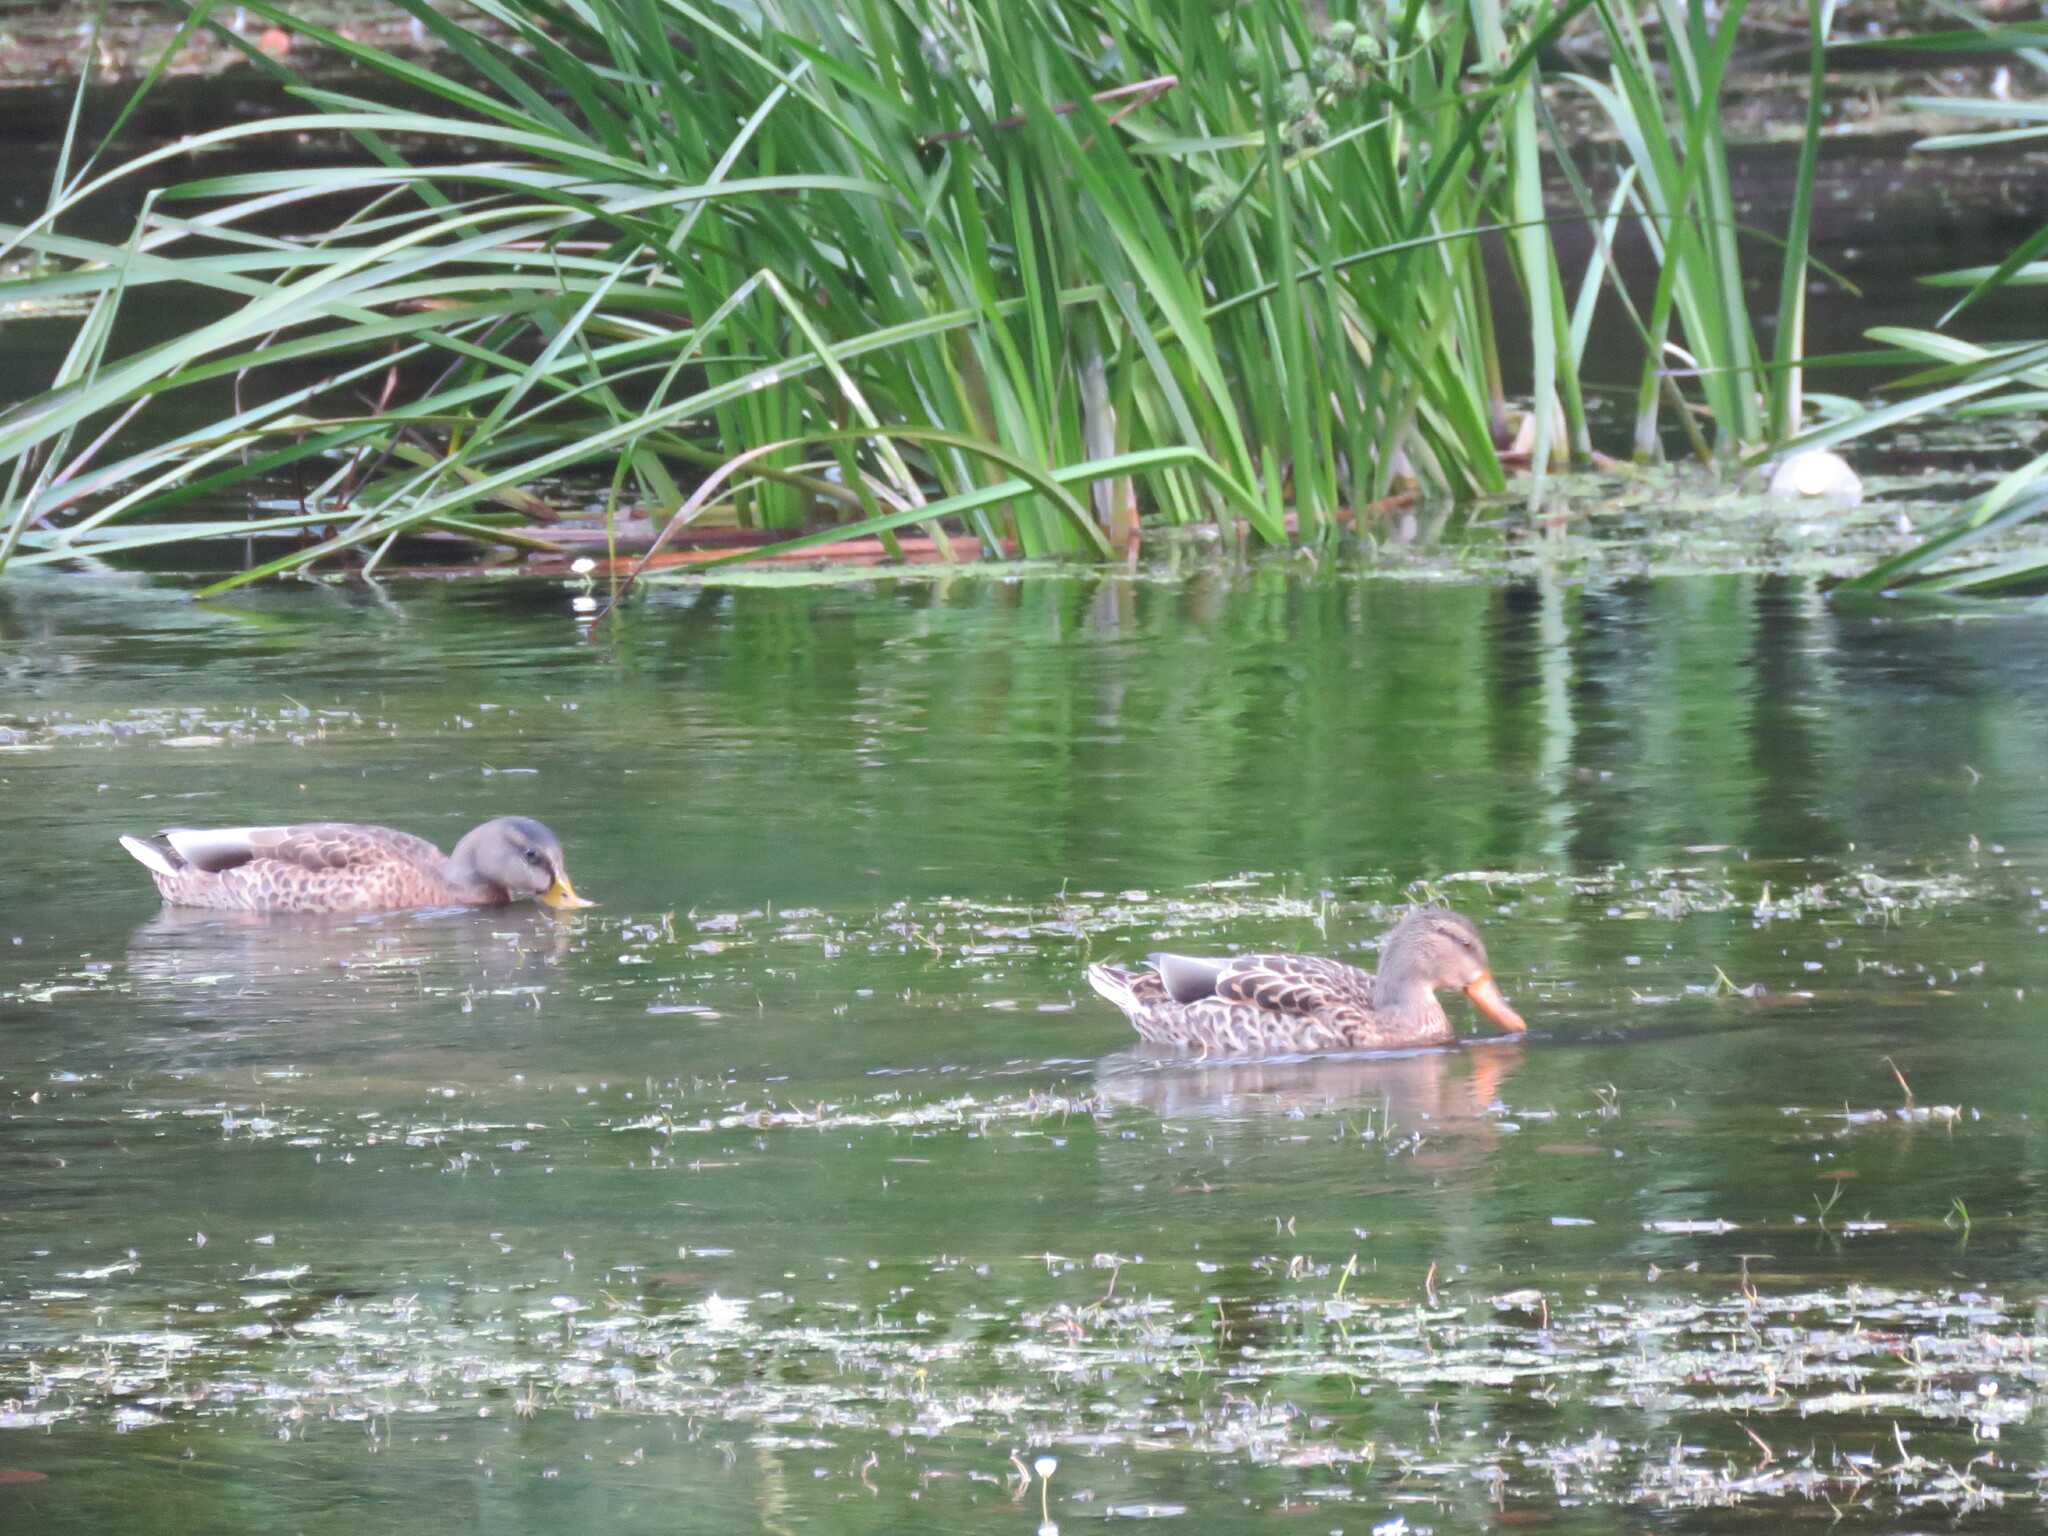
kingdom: Animalia
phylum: Chordata
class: Aves
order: Anseriformes
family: Anatidae
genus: Anas
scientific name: Anas platyrhynchos
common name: Mallard
